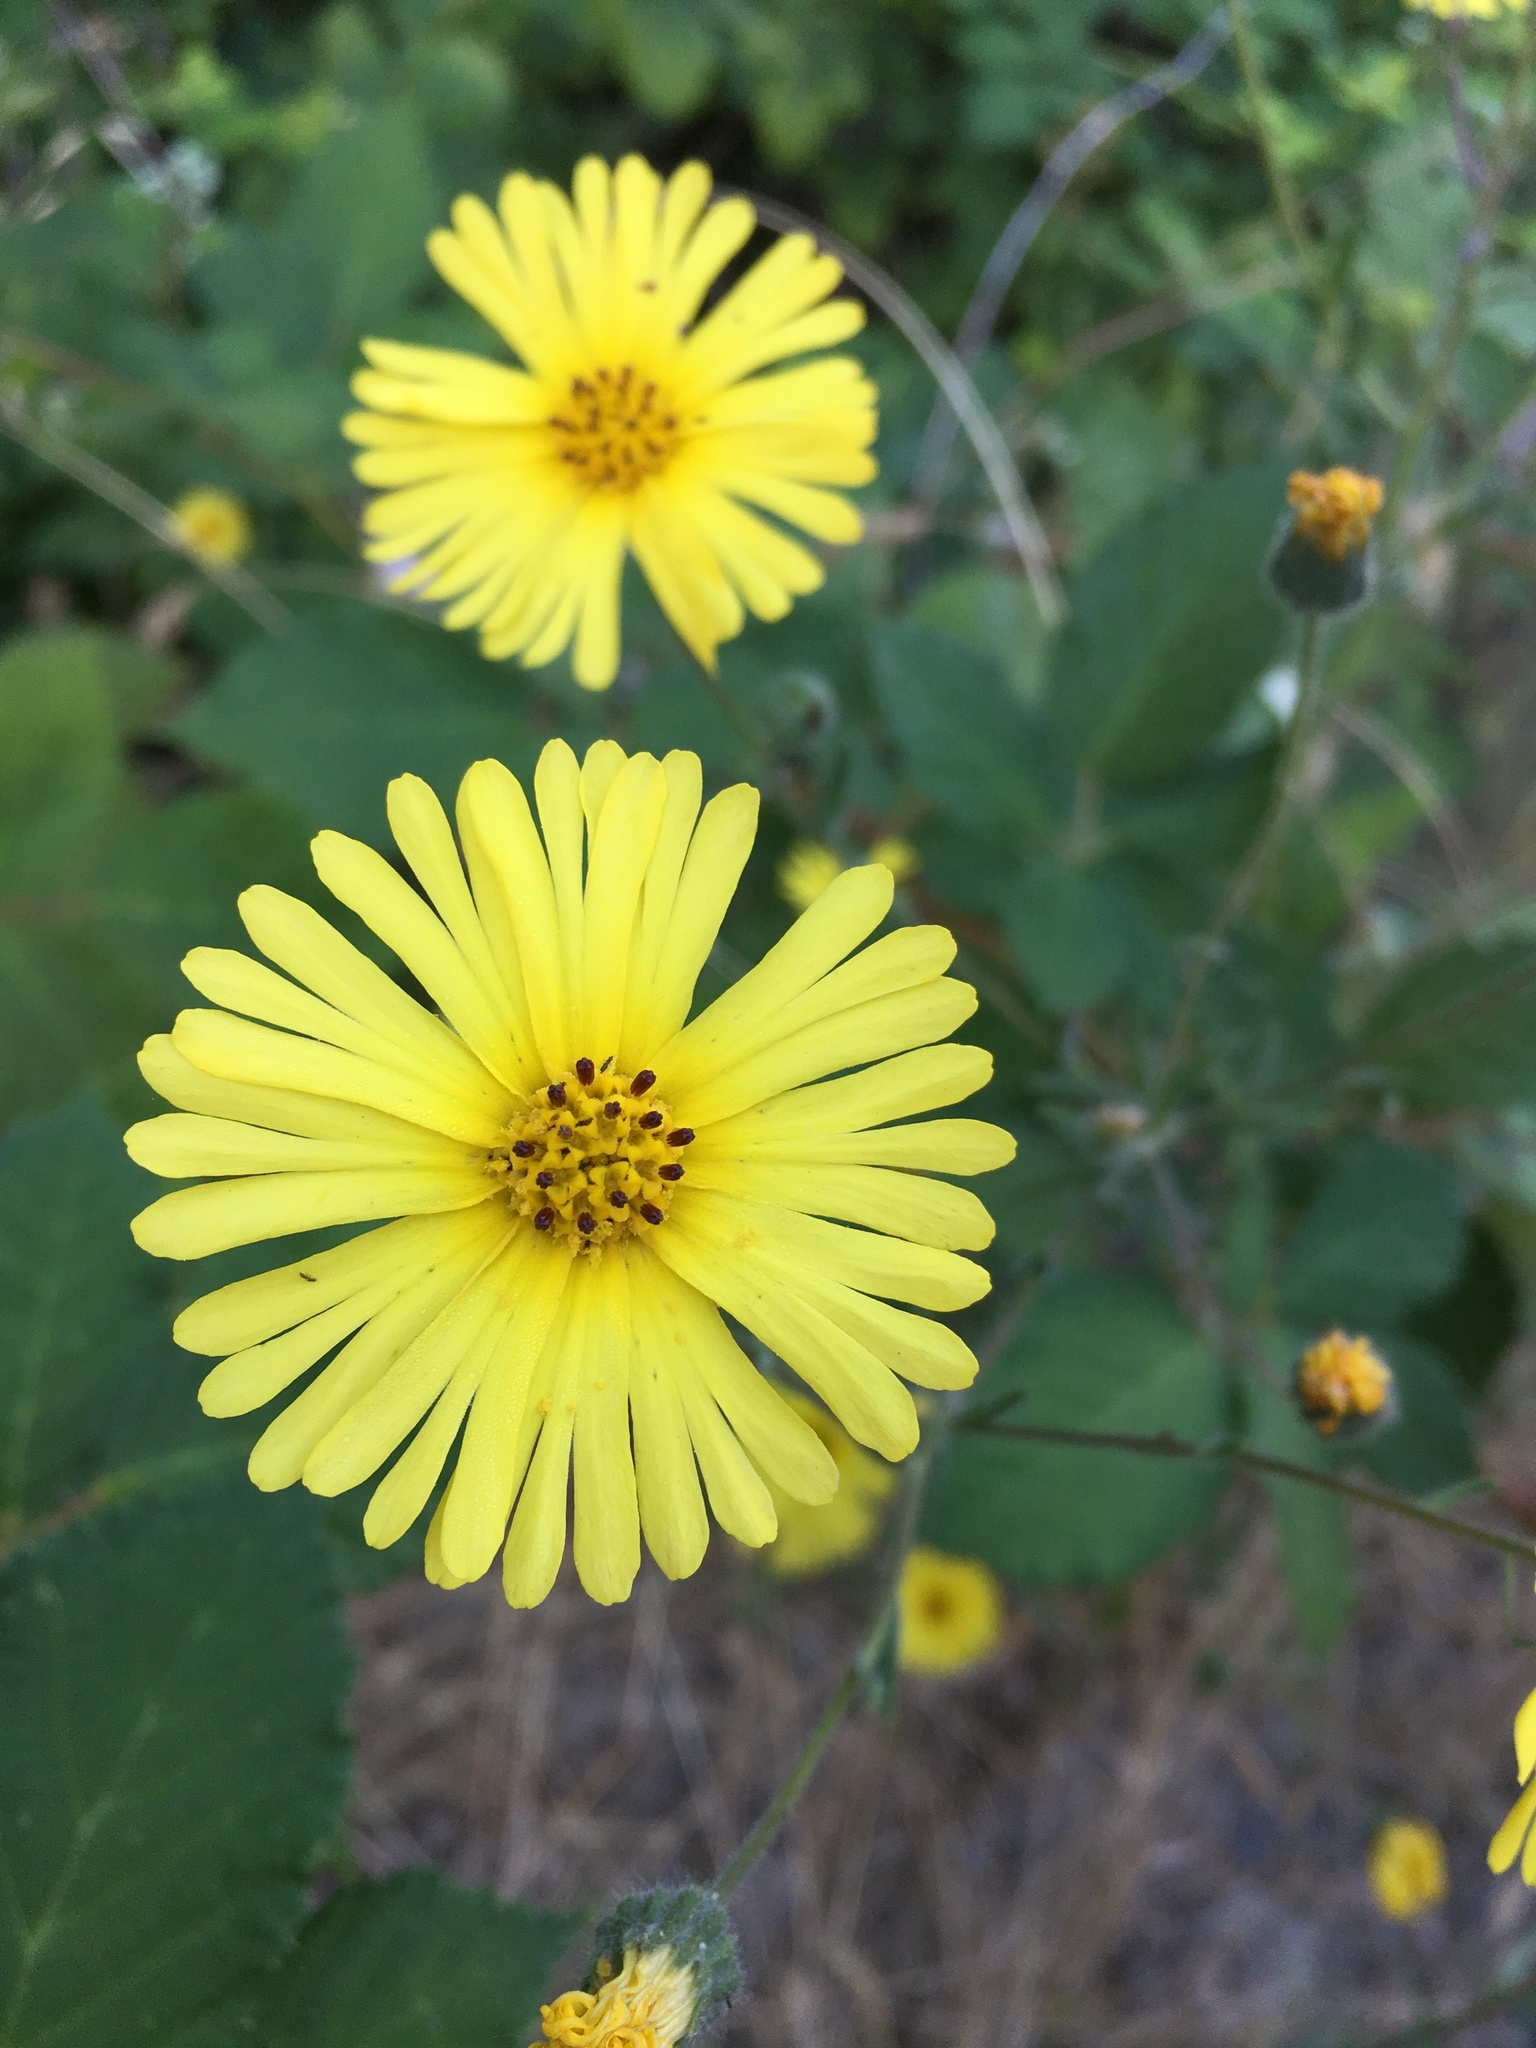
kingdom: Plantae
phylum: Tracheophyta
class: Magnoliopsida
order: Asterales
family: Asteraceae
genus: Madia
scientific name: Madia elegans
